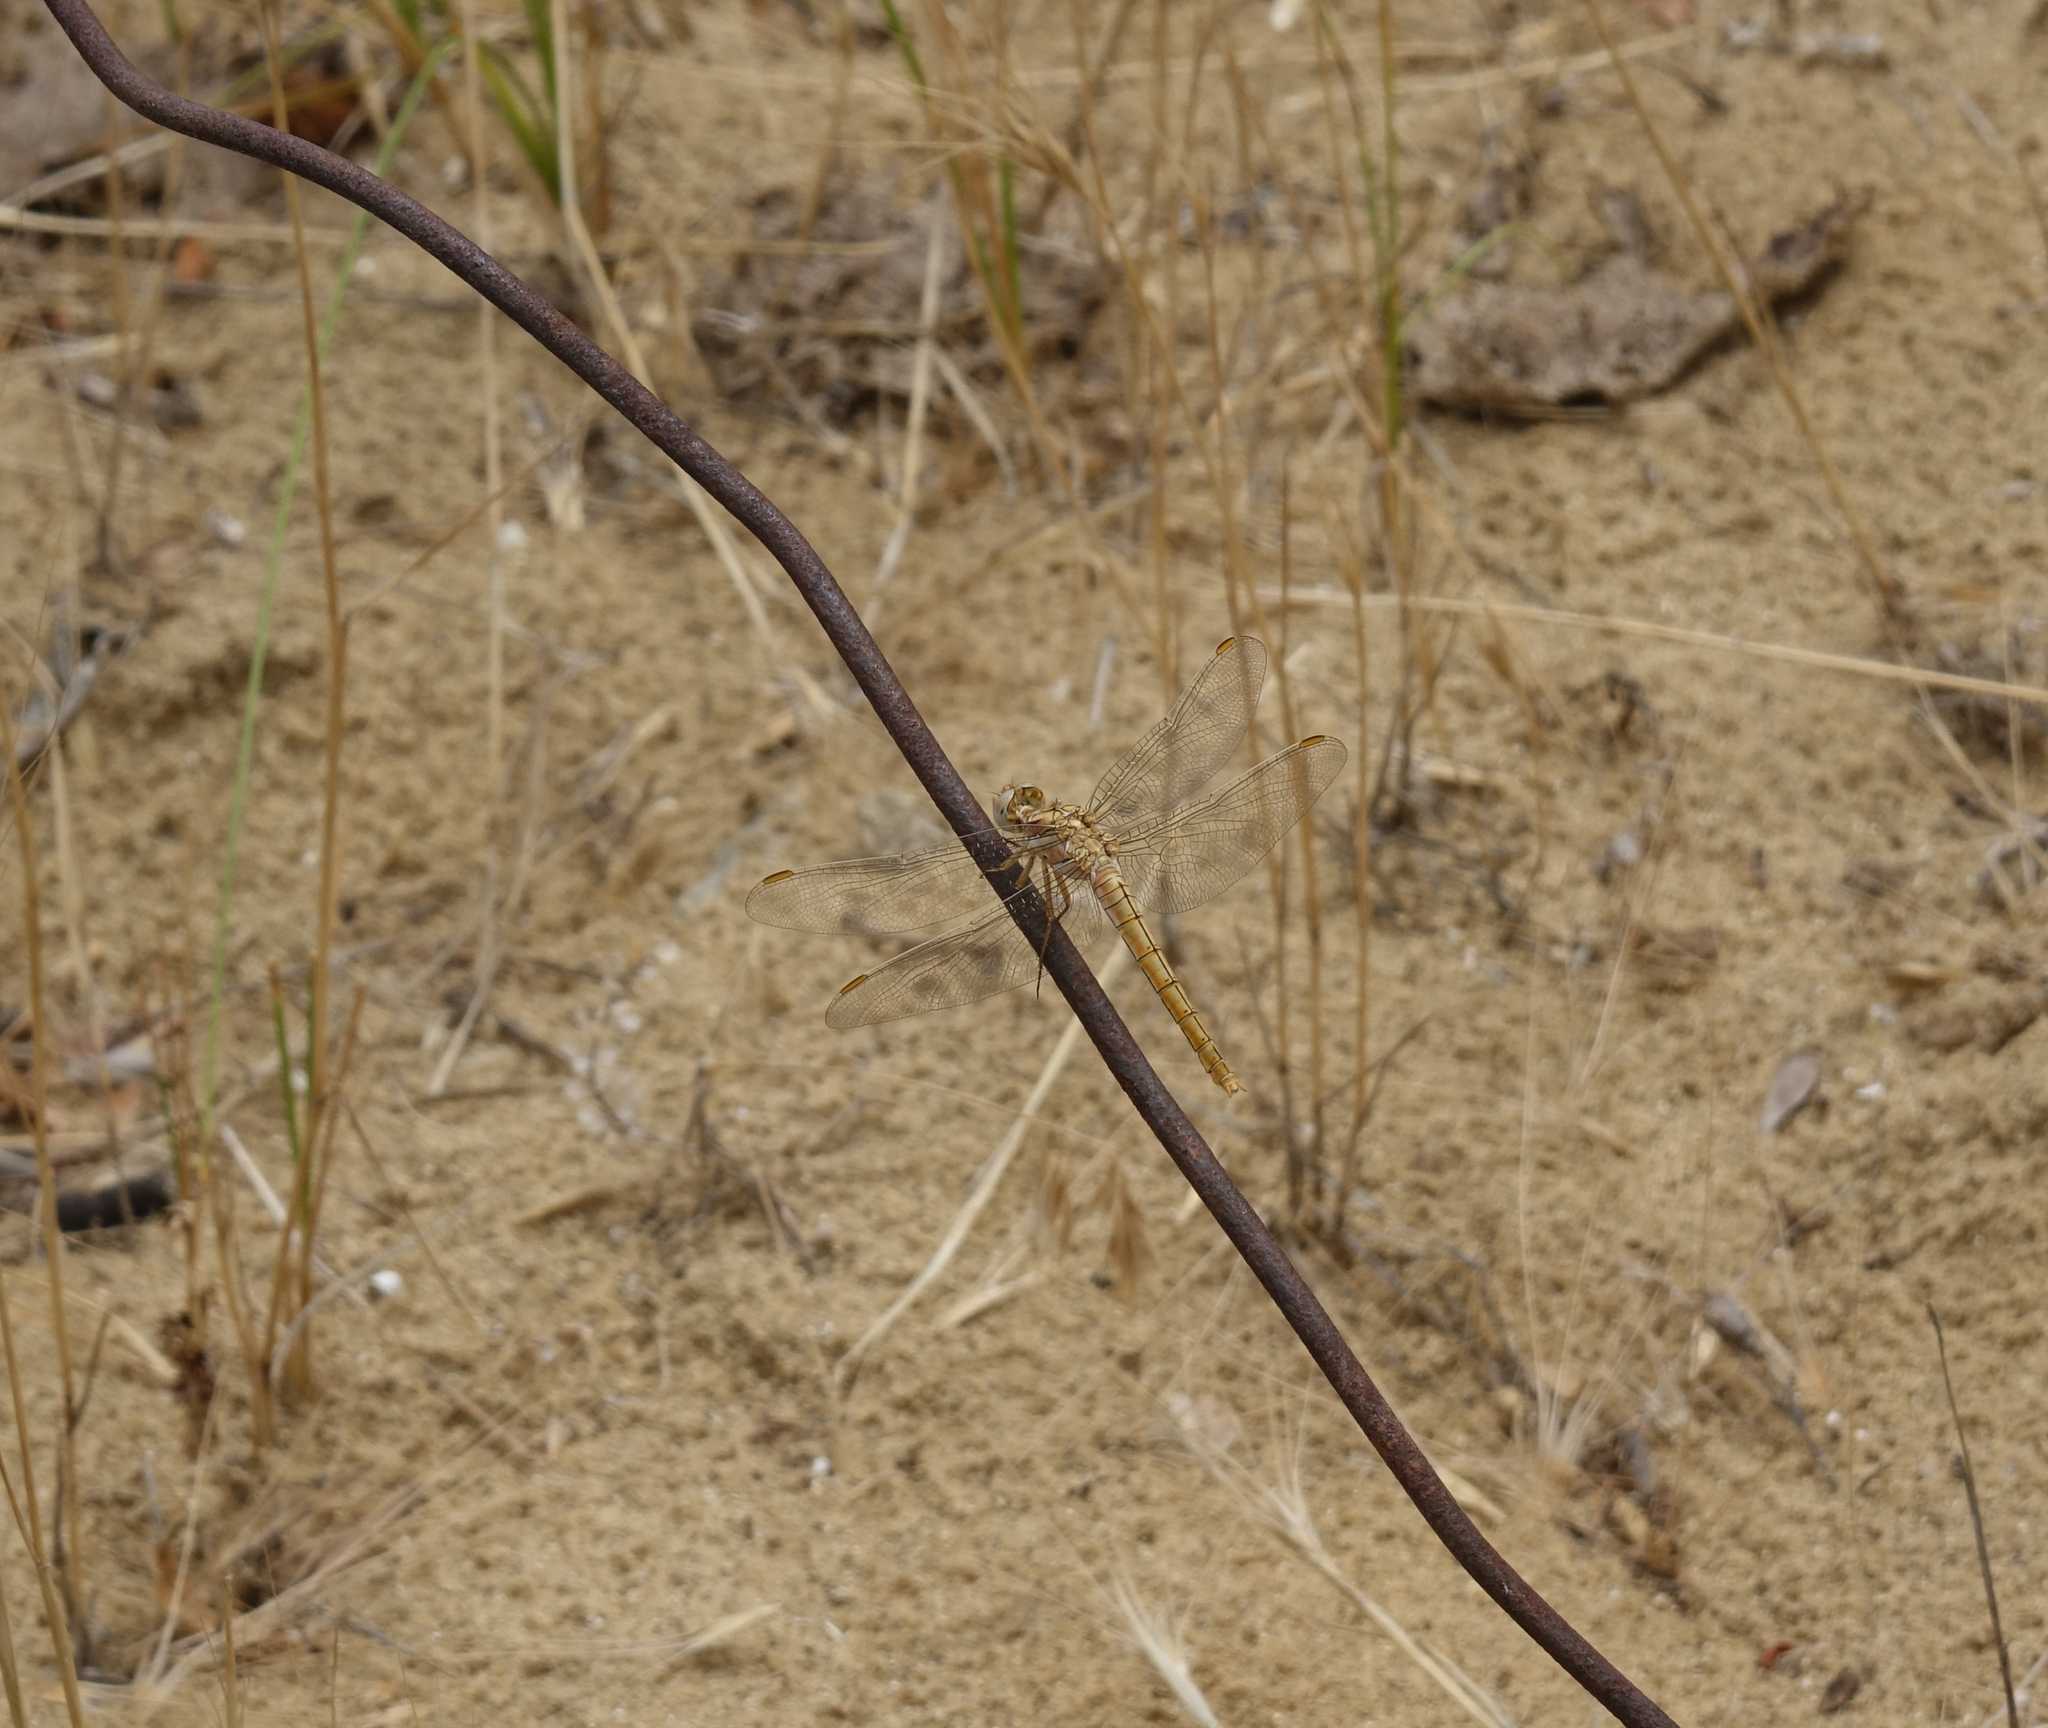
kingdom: Animalia
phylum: Arthropoda
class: Insecta
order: Odonata
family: Libellulidae
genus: Orthetrum
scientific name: Orthetrum brunneum
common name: Southern skimmer
